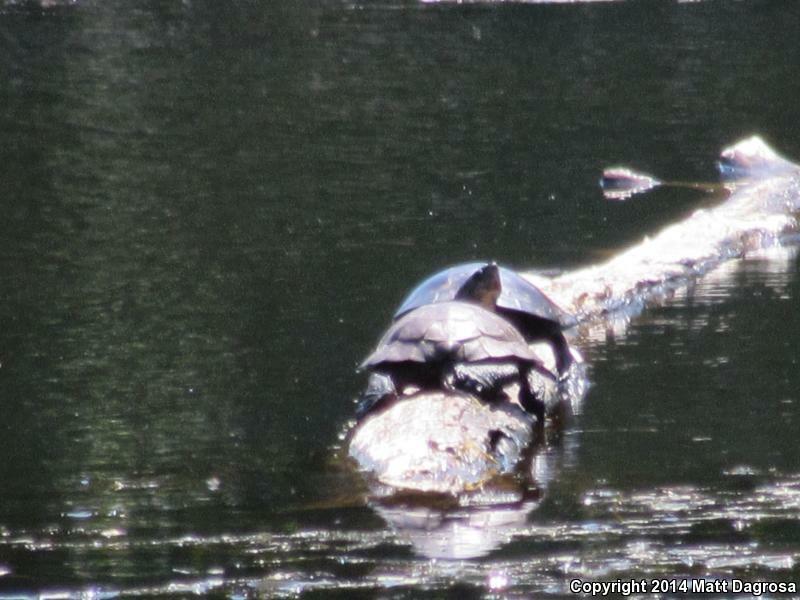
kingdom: Animalia
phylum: Chordata
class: Testudines
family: Emydidae
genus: Actinemys
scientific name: Actinemys marmorata
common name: Western pond turtle
